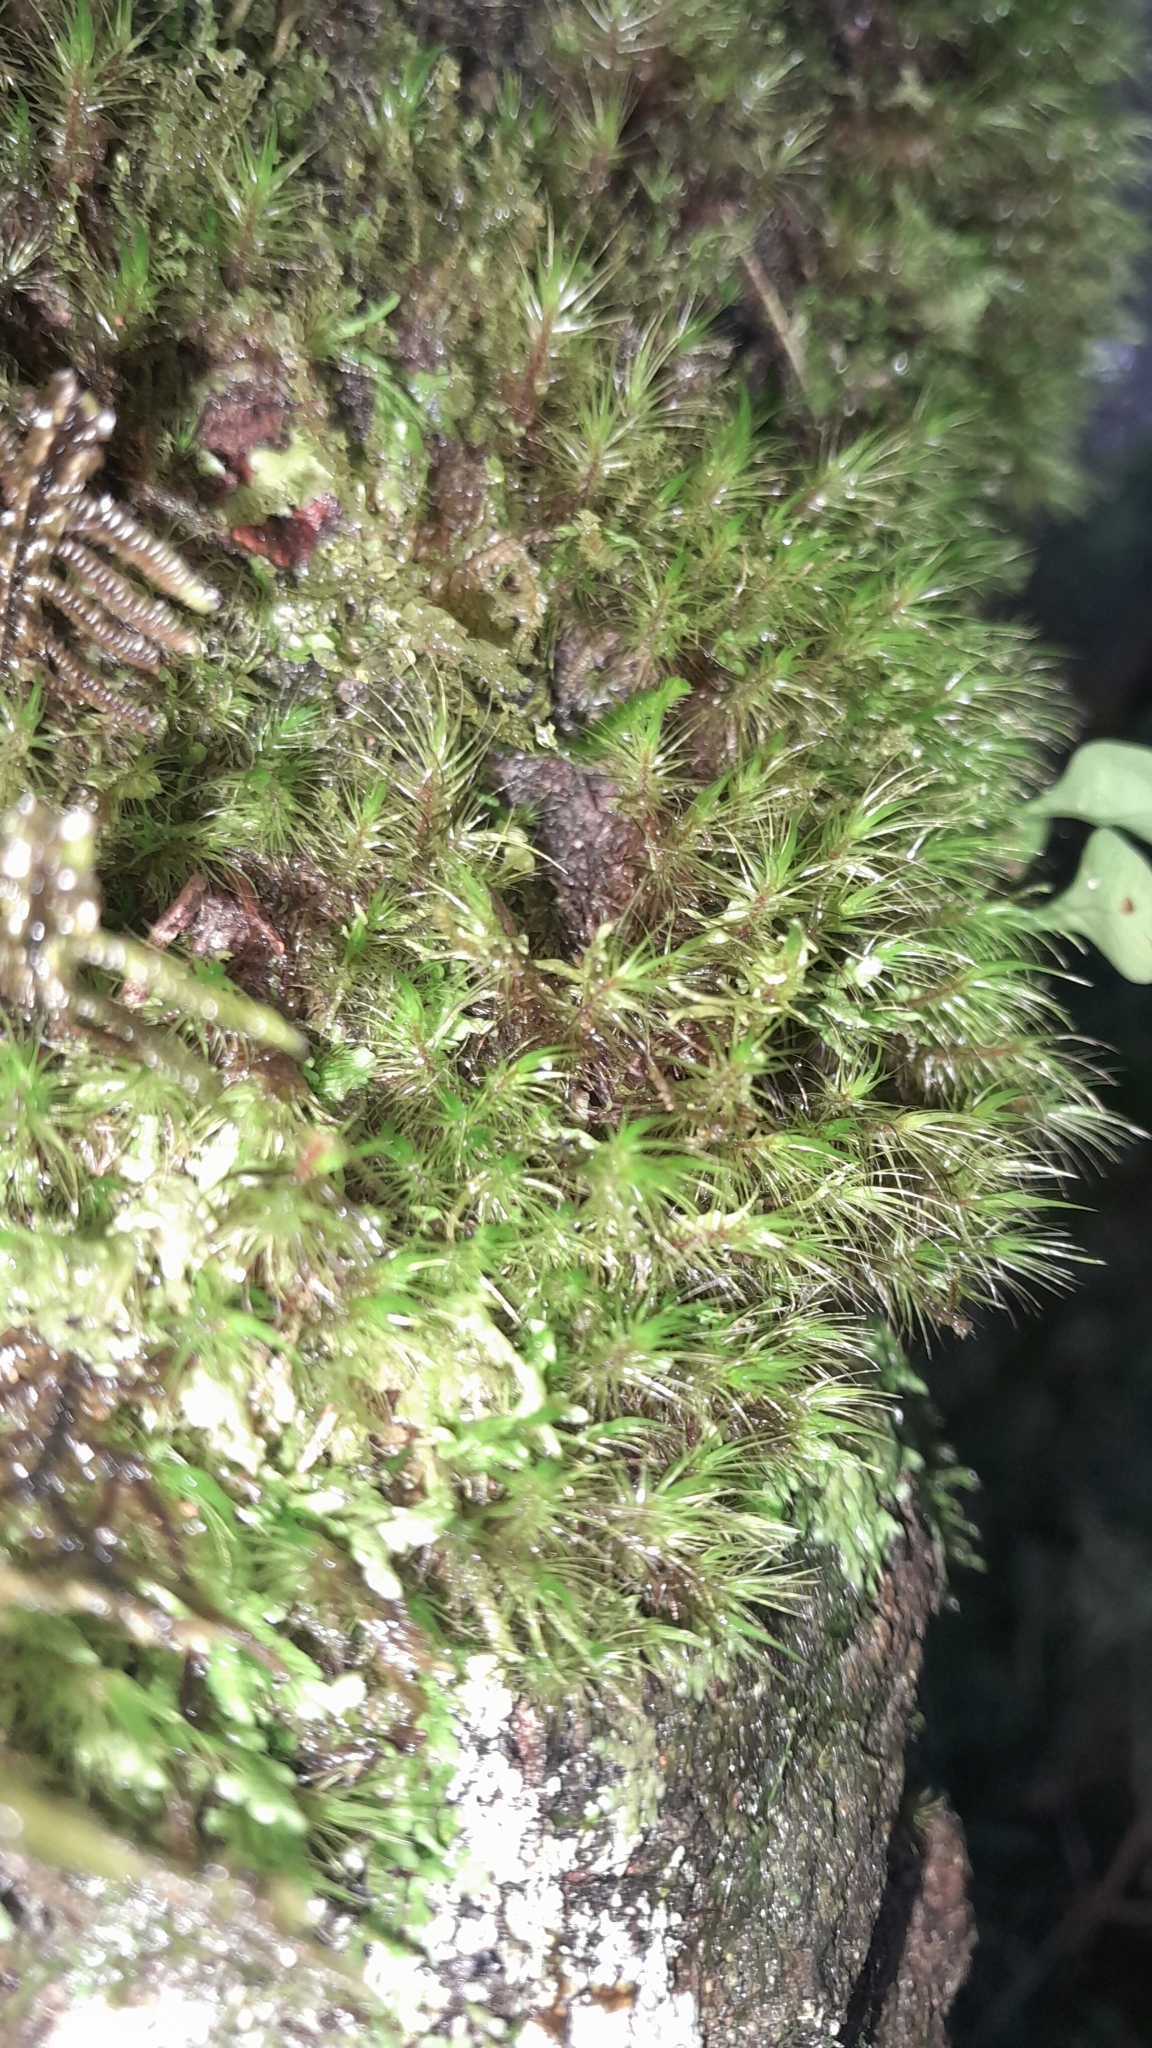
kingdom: Plantae
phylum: Bryophyta
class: Bryopsida
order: Dicranales
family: Leucobryaceae
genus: Dicranodontium
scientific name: Dicranodontium denudatum
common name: Beaked bow moss
